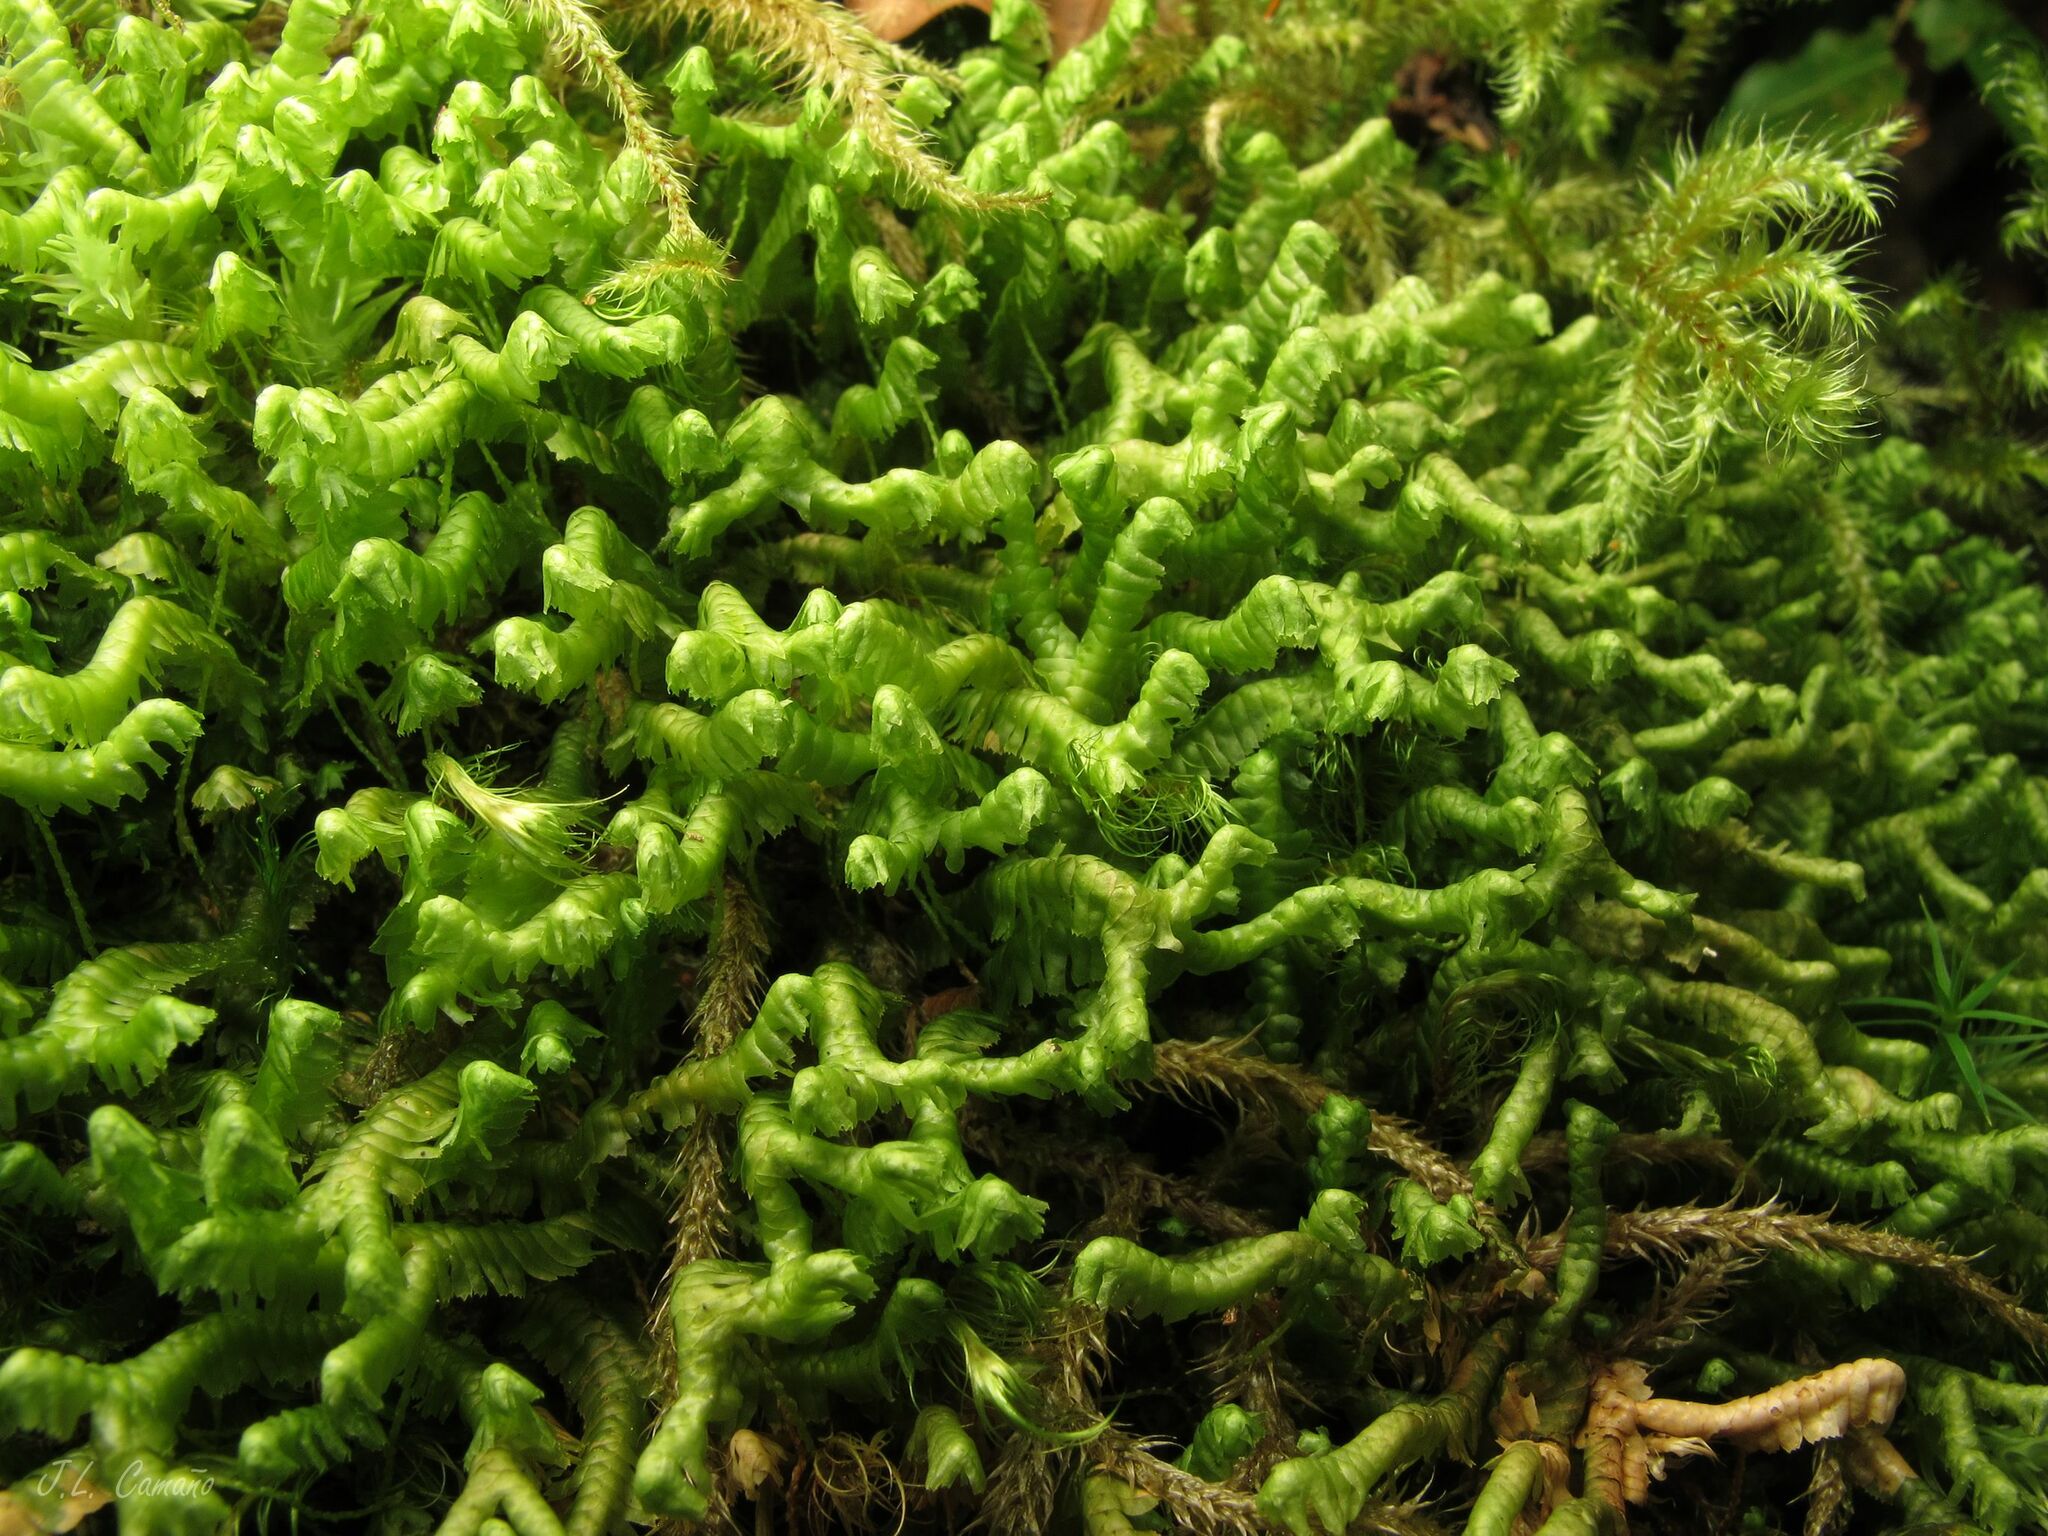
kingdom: Plantae
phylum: Marchantiophyta
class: Jungermanniopsida
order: Jungermanniales
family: Lepidoziaceae
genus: Bazzania
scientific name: Bazzania trilobata
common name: Three-lobed whipwort
